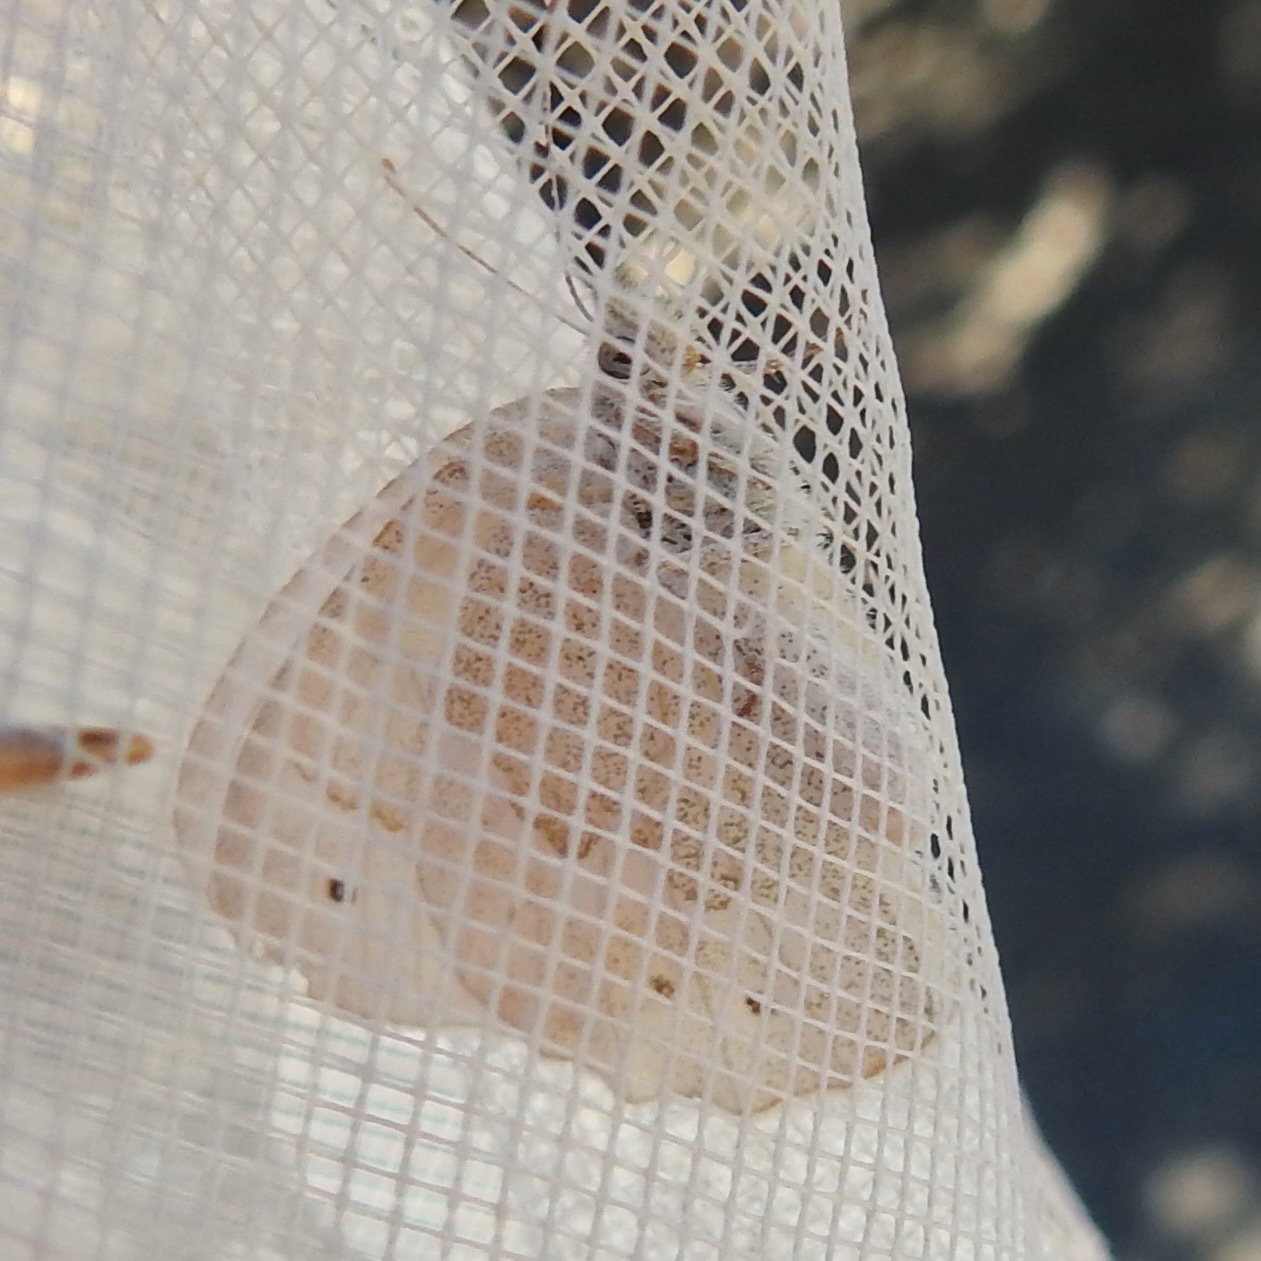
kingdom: Animalia
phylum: Arthropoda
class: Insecta
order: Lepidoptera
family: Nymphalidae
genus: Coenonympha
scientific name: Coenonympha california
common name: Common ringlet
